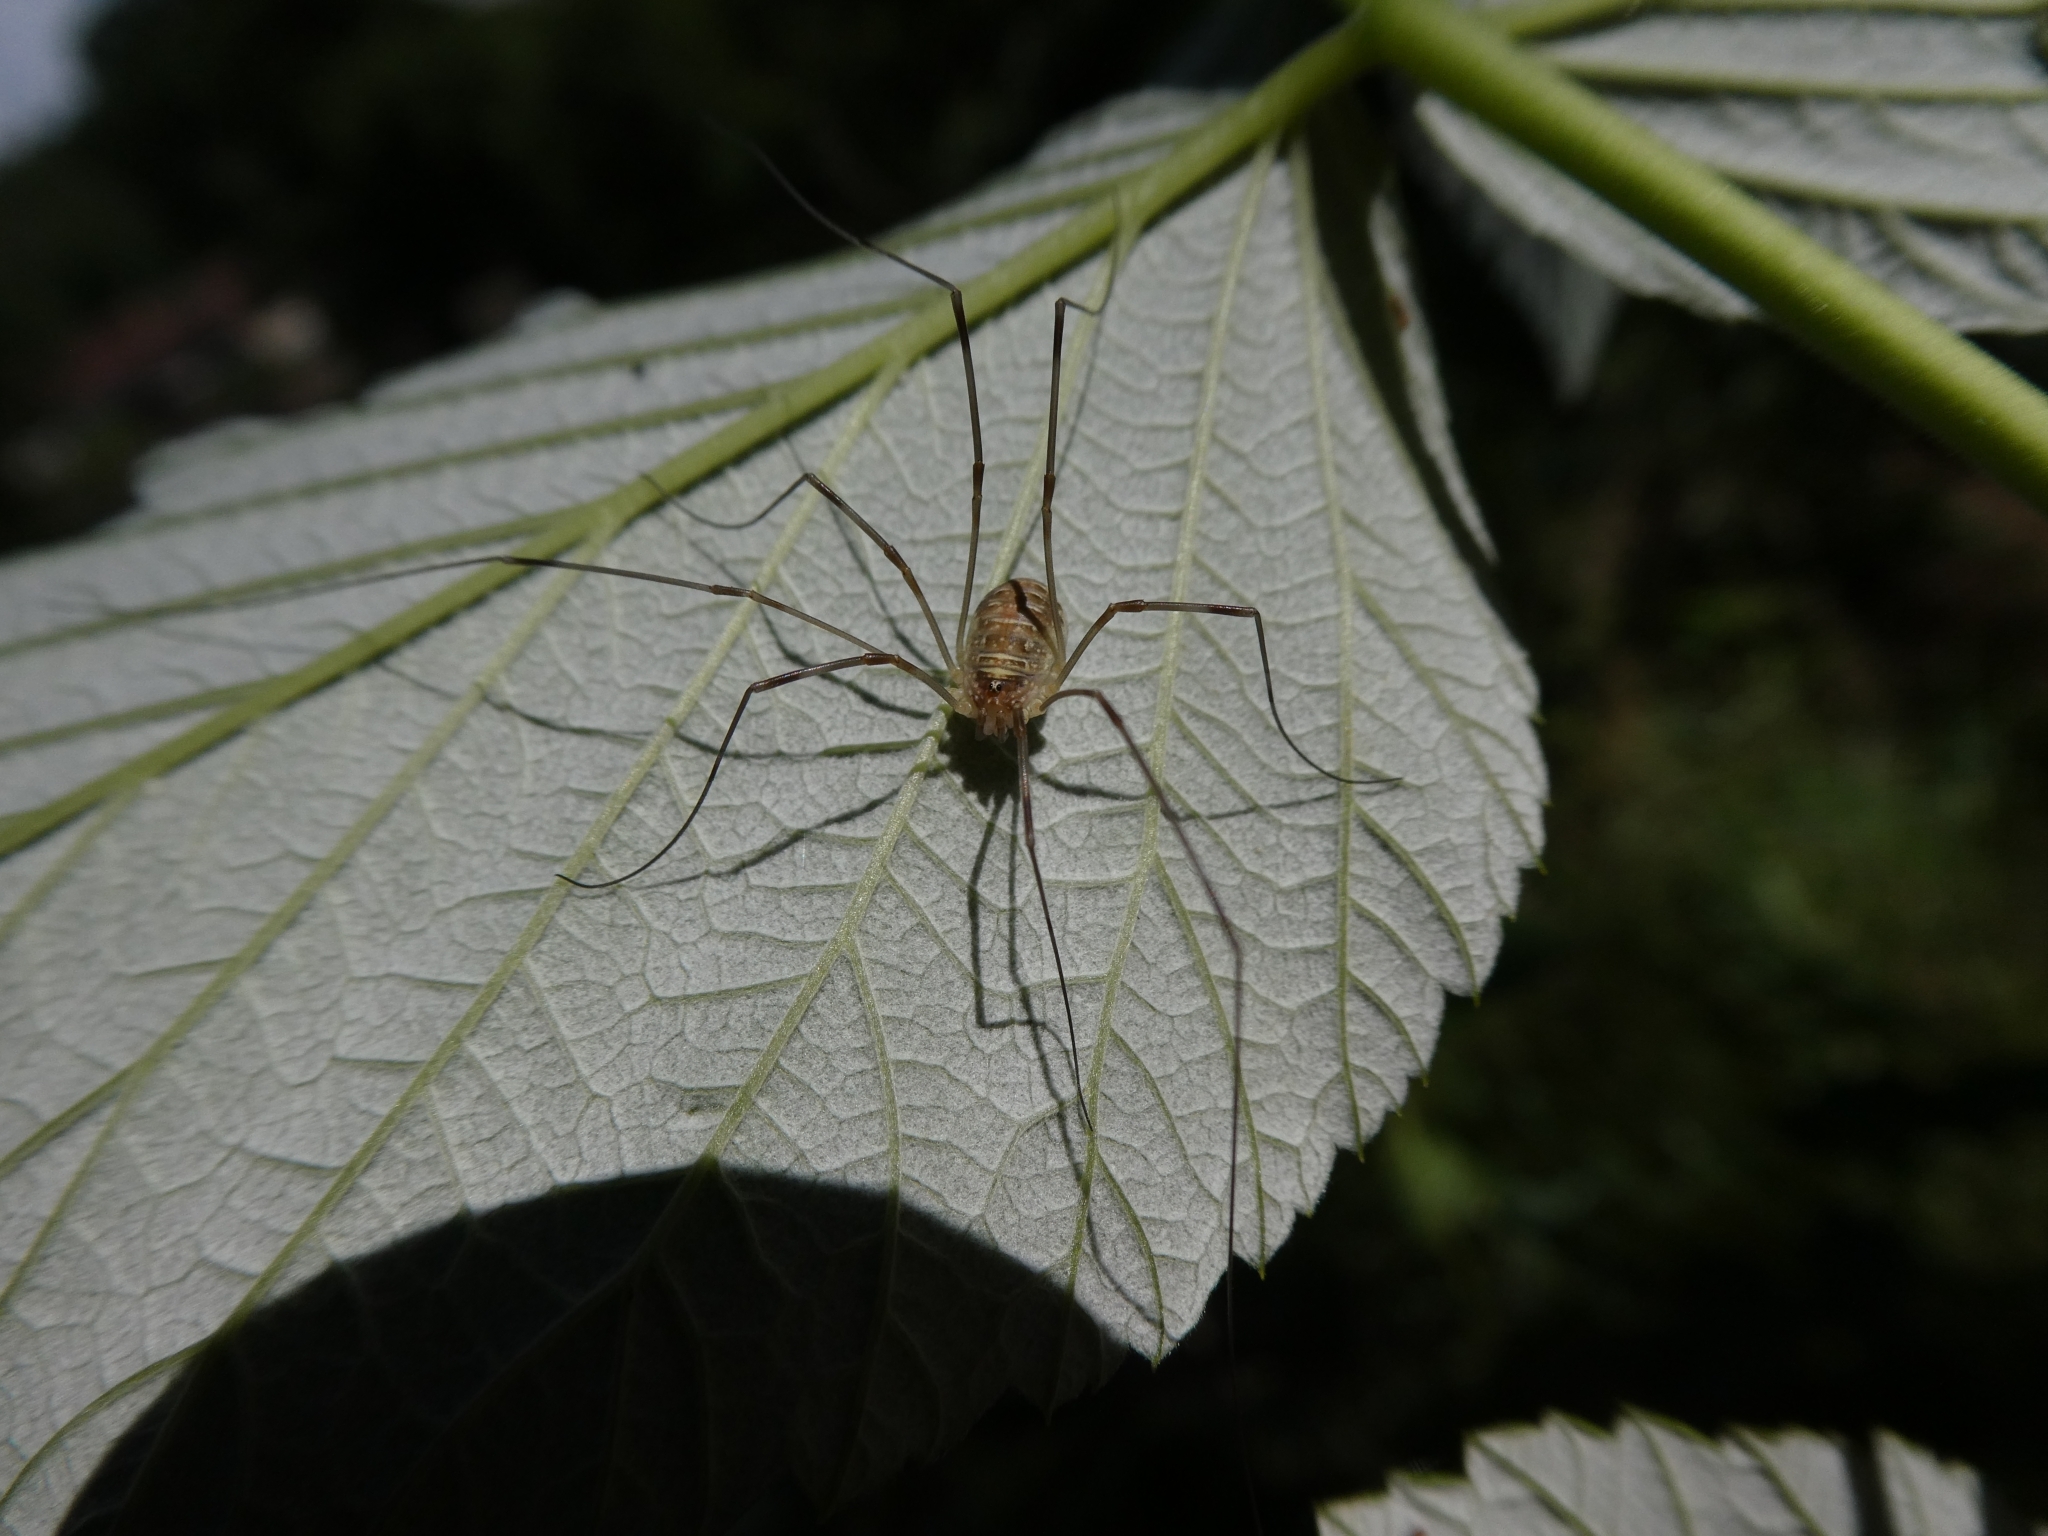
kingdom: Animalia
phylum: Arthropoda
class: Arachnida
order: Opiliones
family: Phalangiidae
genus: Opilio
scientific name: Opilio canestrinii
